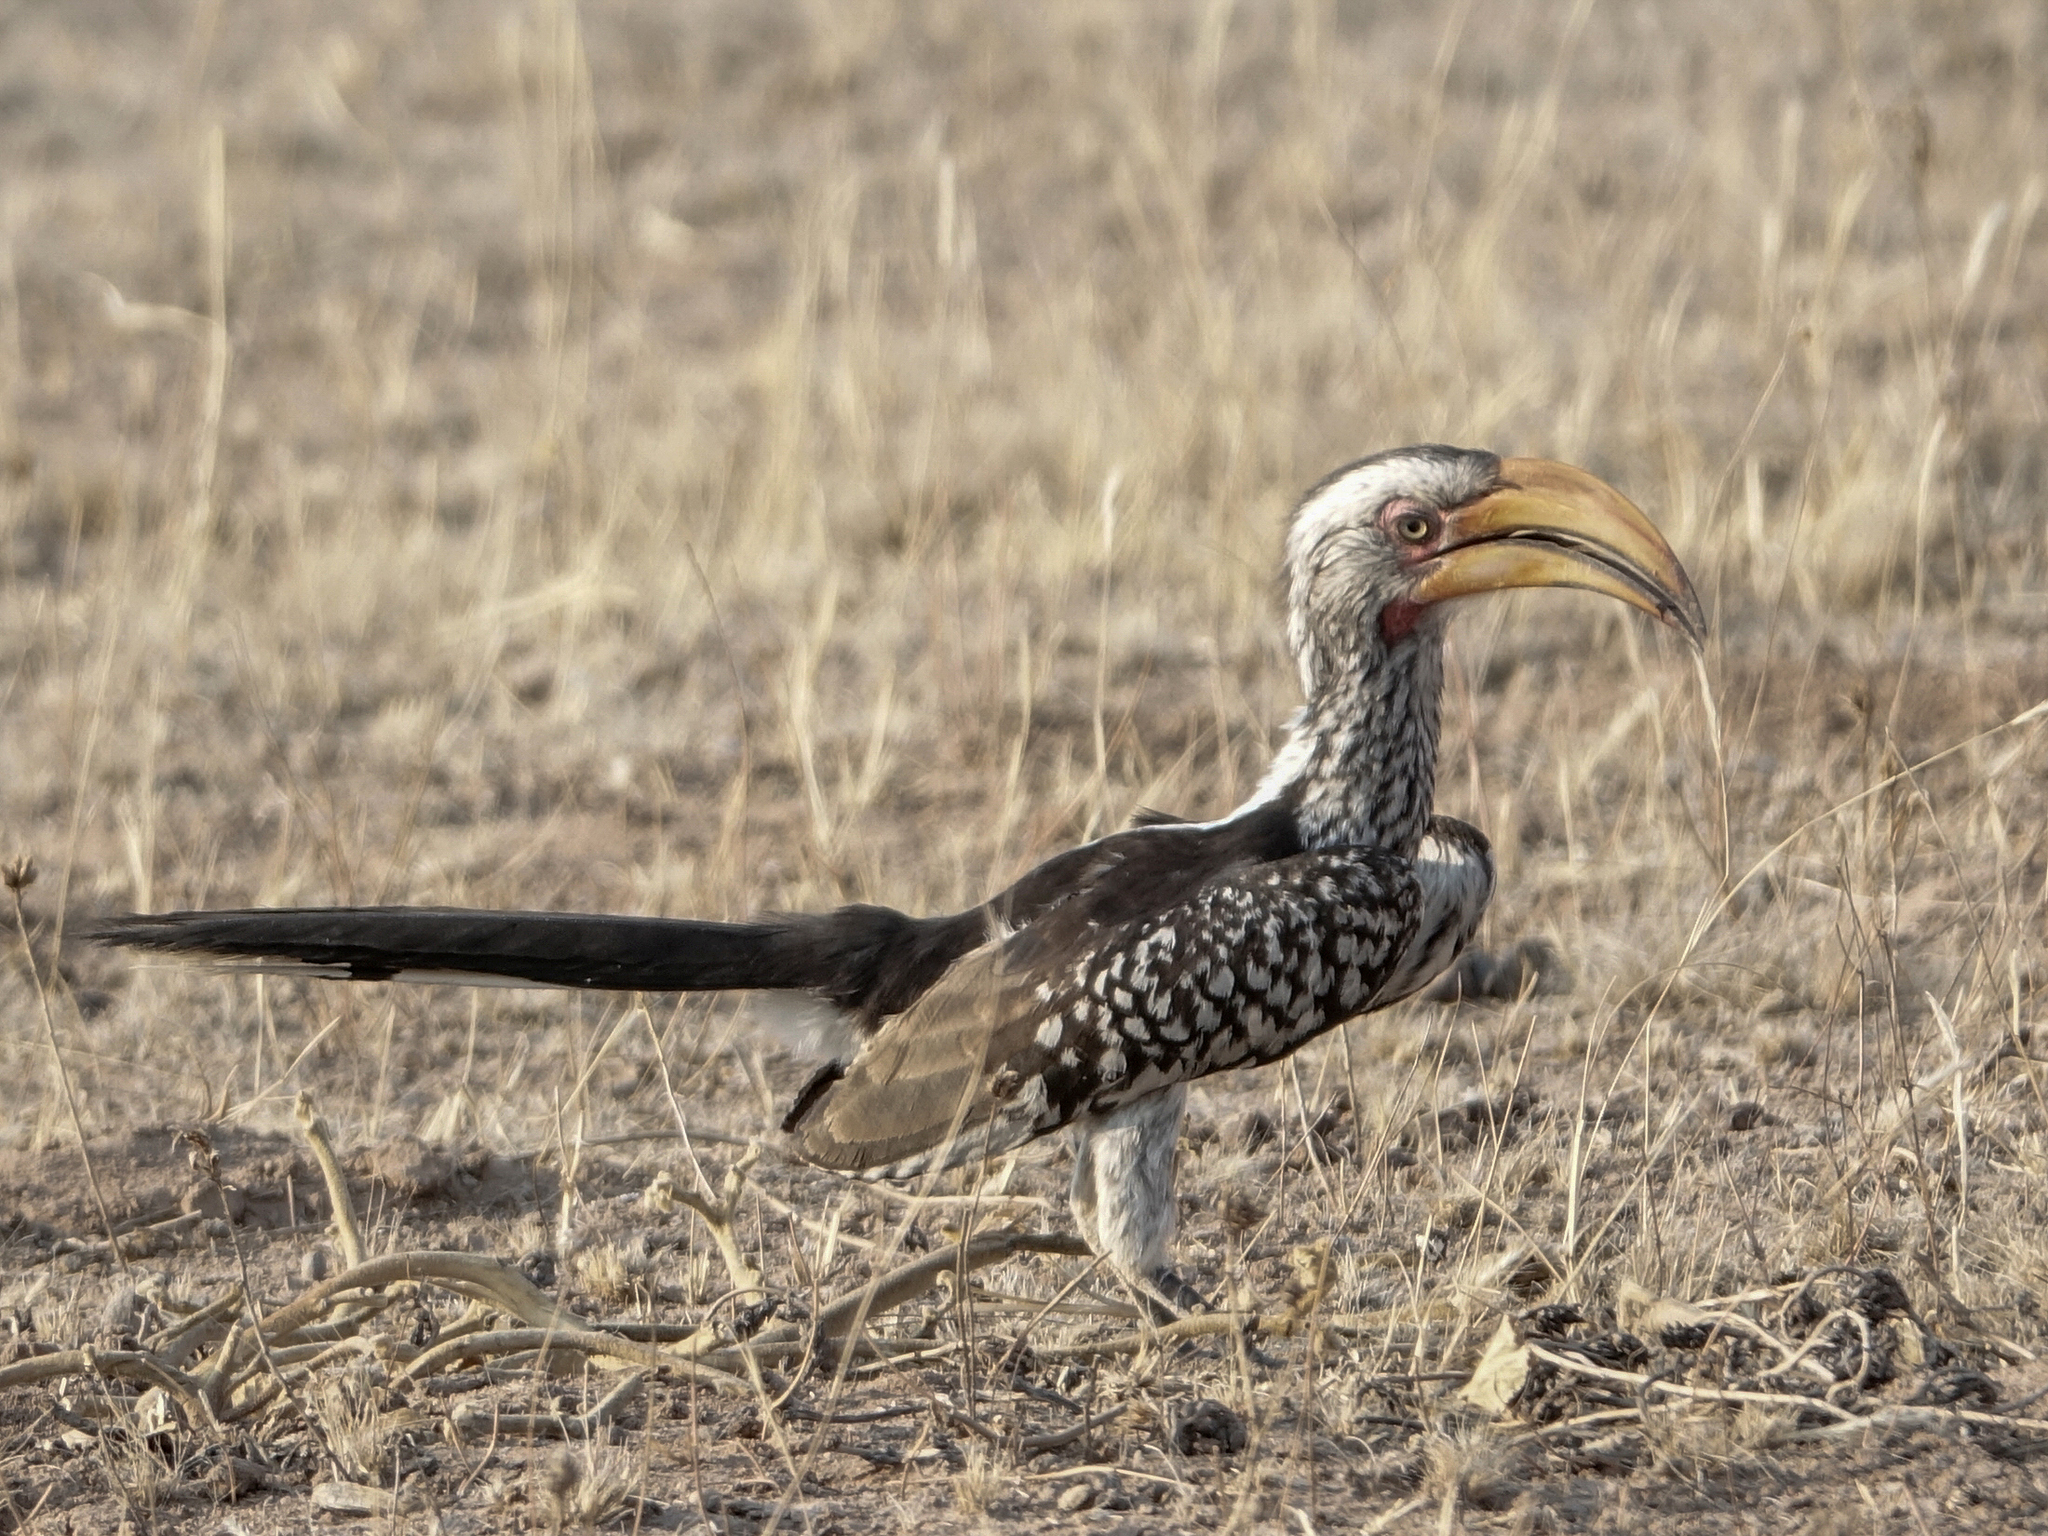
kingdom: Animalia
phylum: Chordata
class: Aves
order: Bucerotiformes
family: Bucerotidae
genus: Tockus
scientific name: Tockus leucomelas
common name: Southern yellow-billed hornbill
